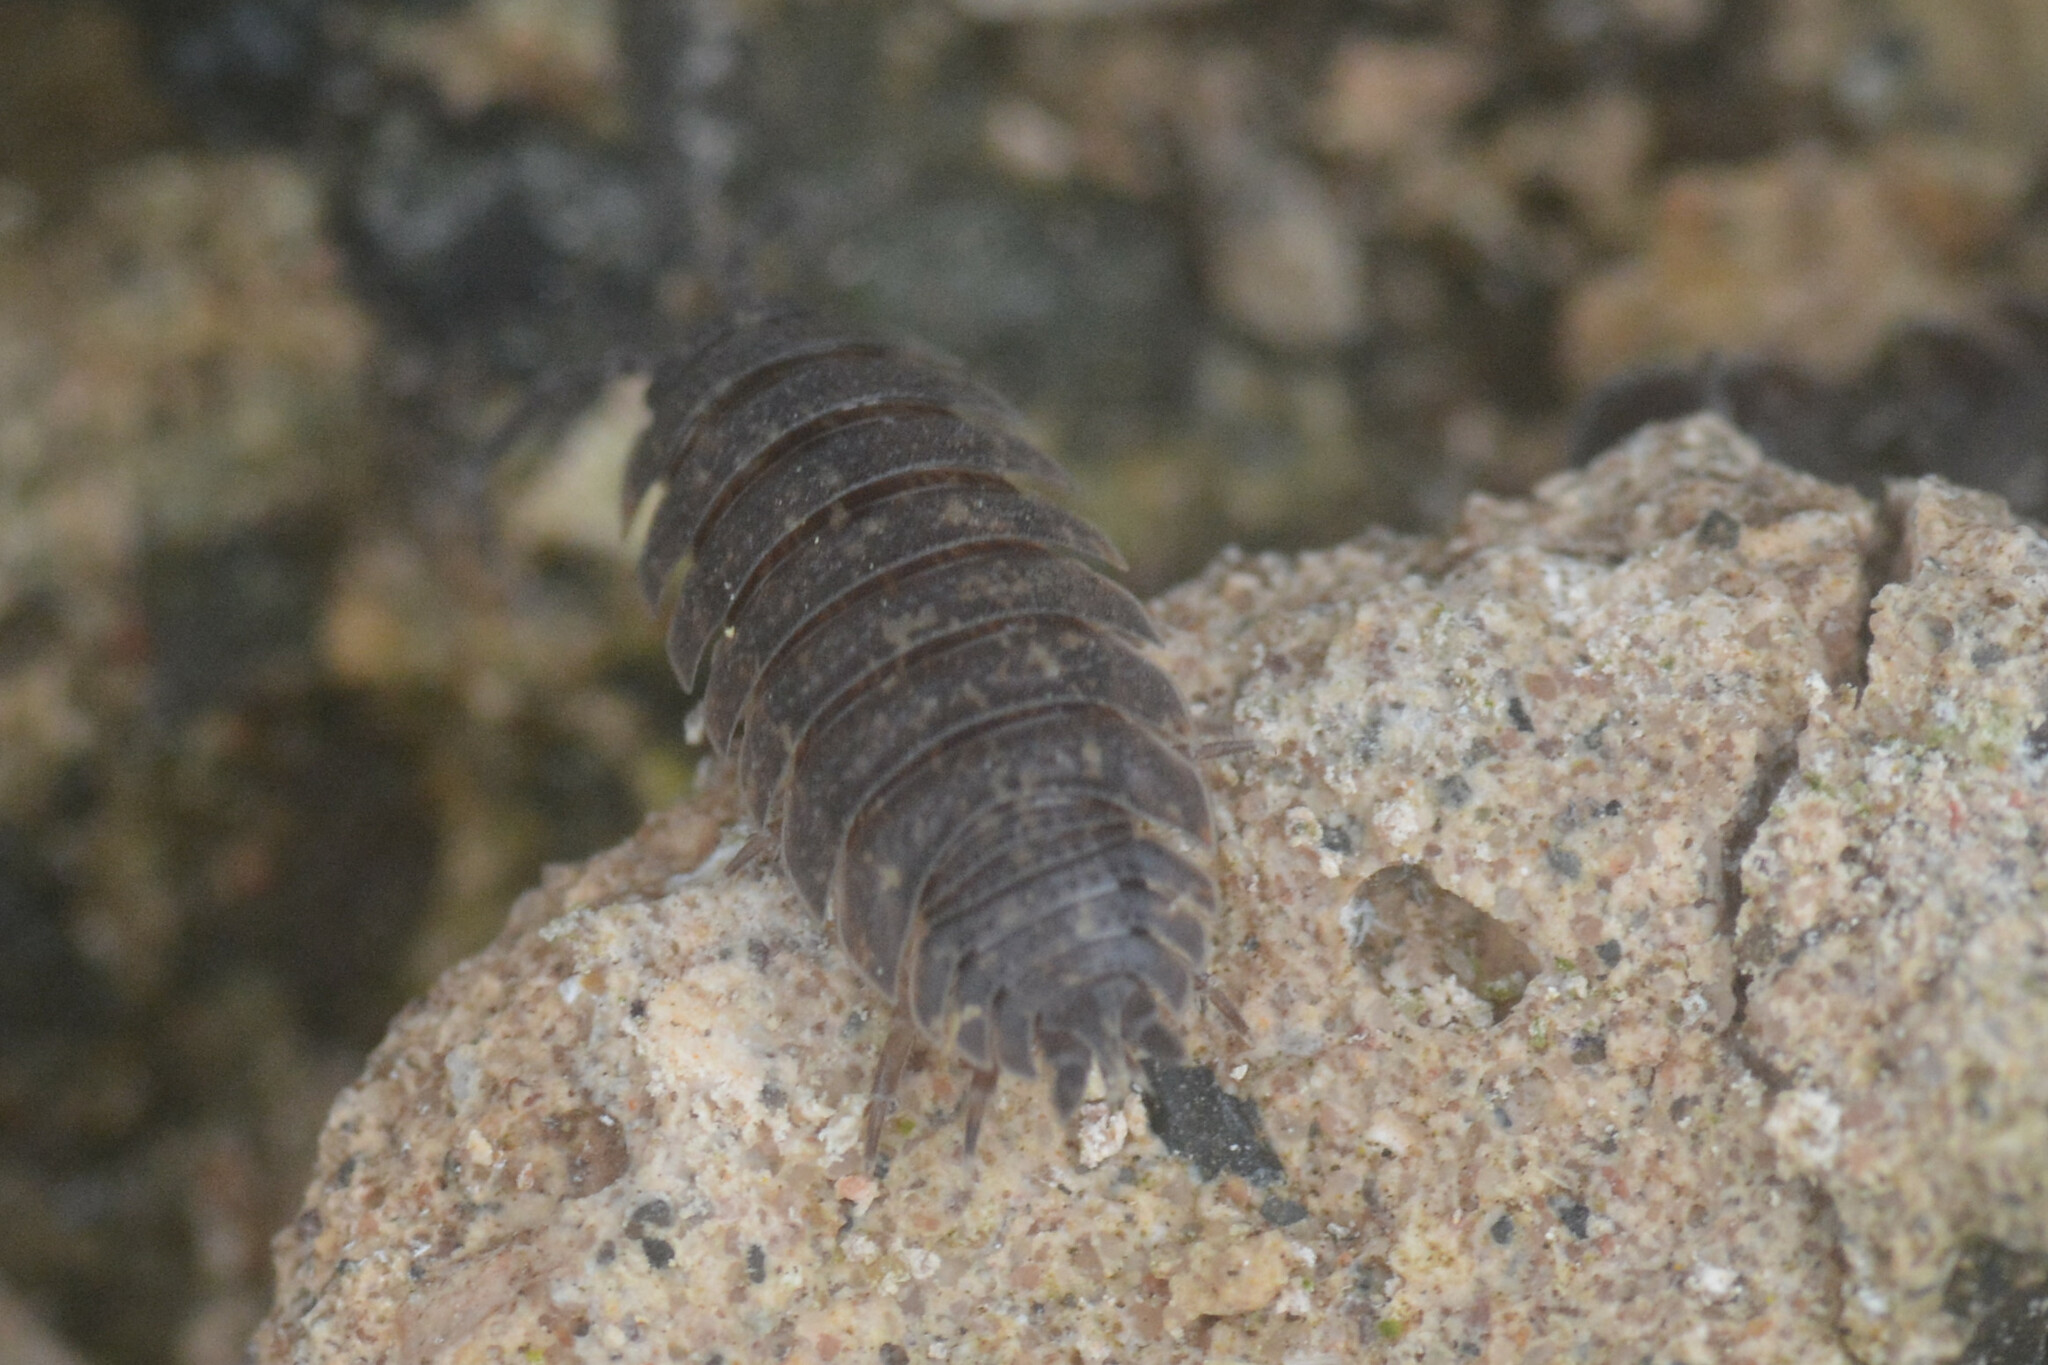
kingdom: Animalia
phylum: Arthropoda
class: Malacostraca
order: Isopoda
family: Porcellionidae
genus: Porcellio
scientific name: Porcellio scaber
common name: Common rough woodlouse
